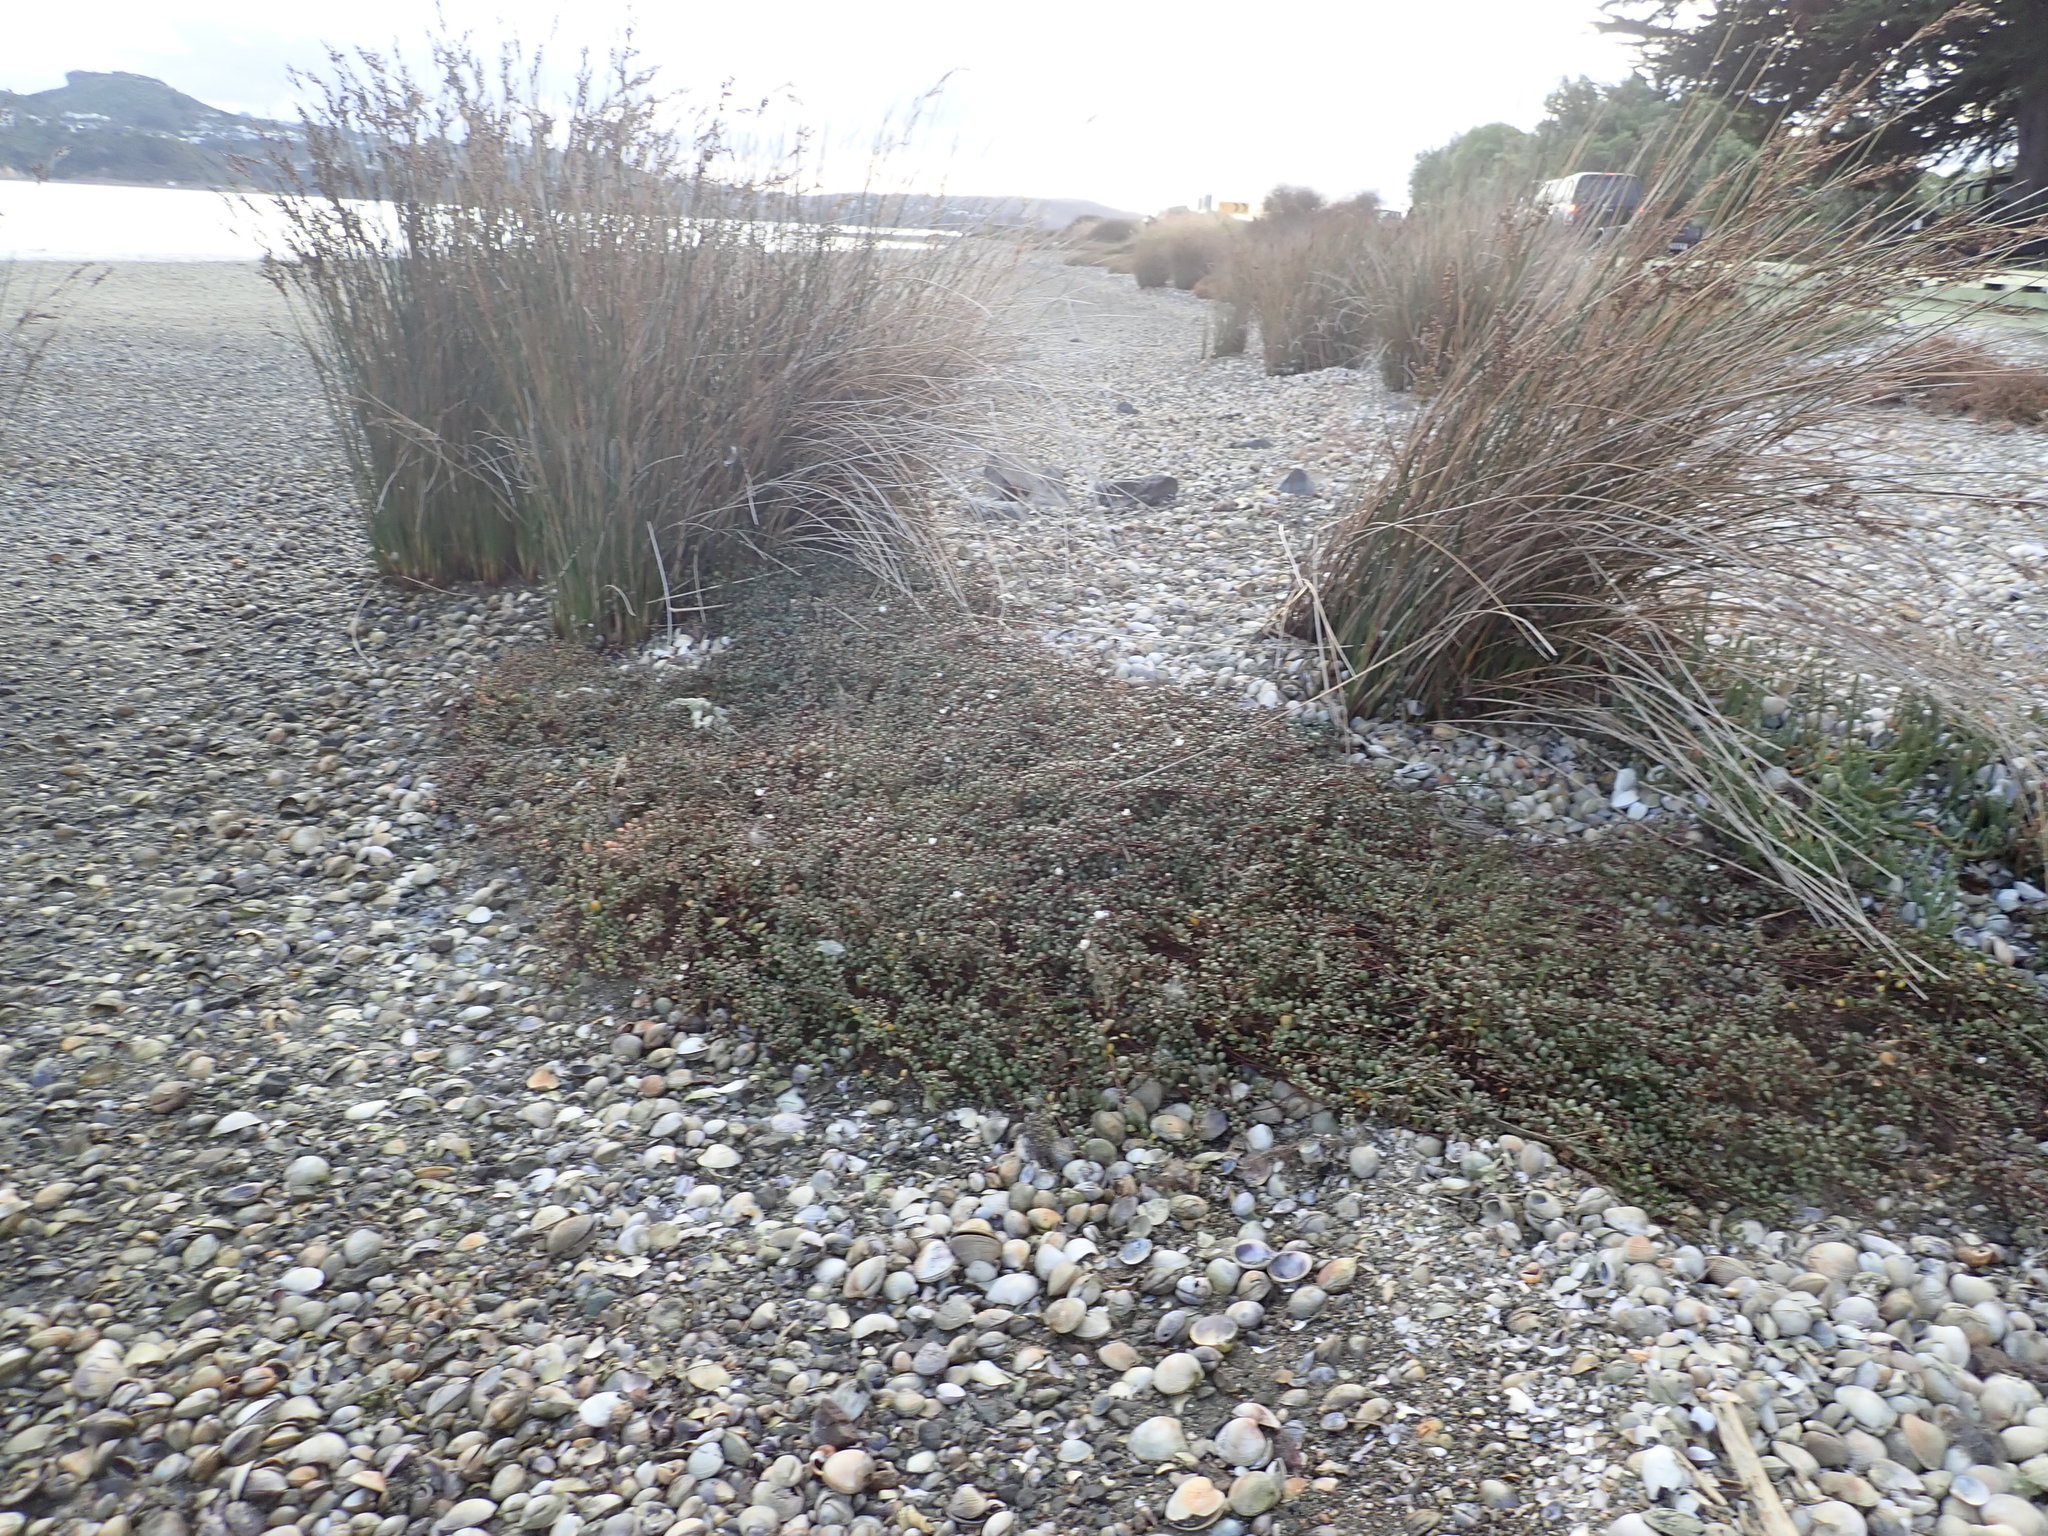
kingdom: Plantae
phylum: Tracheophyta
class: Magnoliopsida
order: Ericales
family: Primulaceae
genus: Samolus
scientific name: Samolus repens
